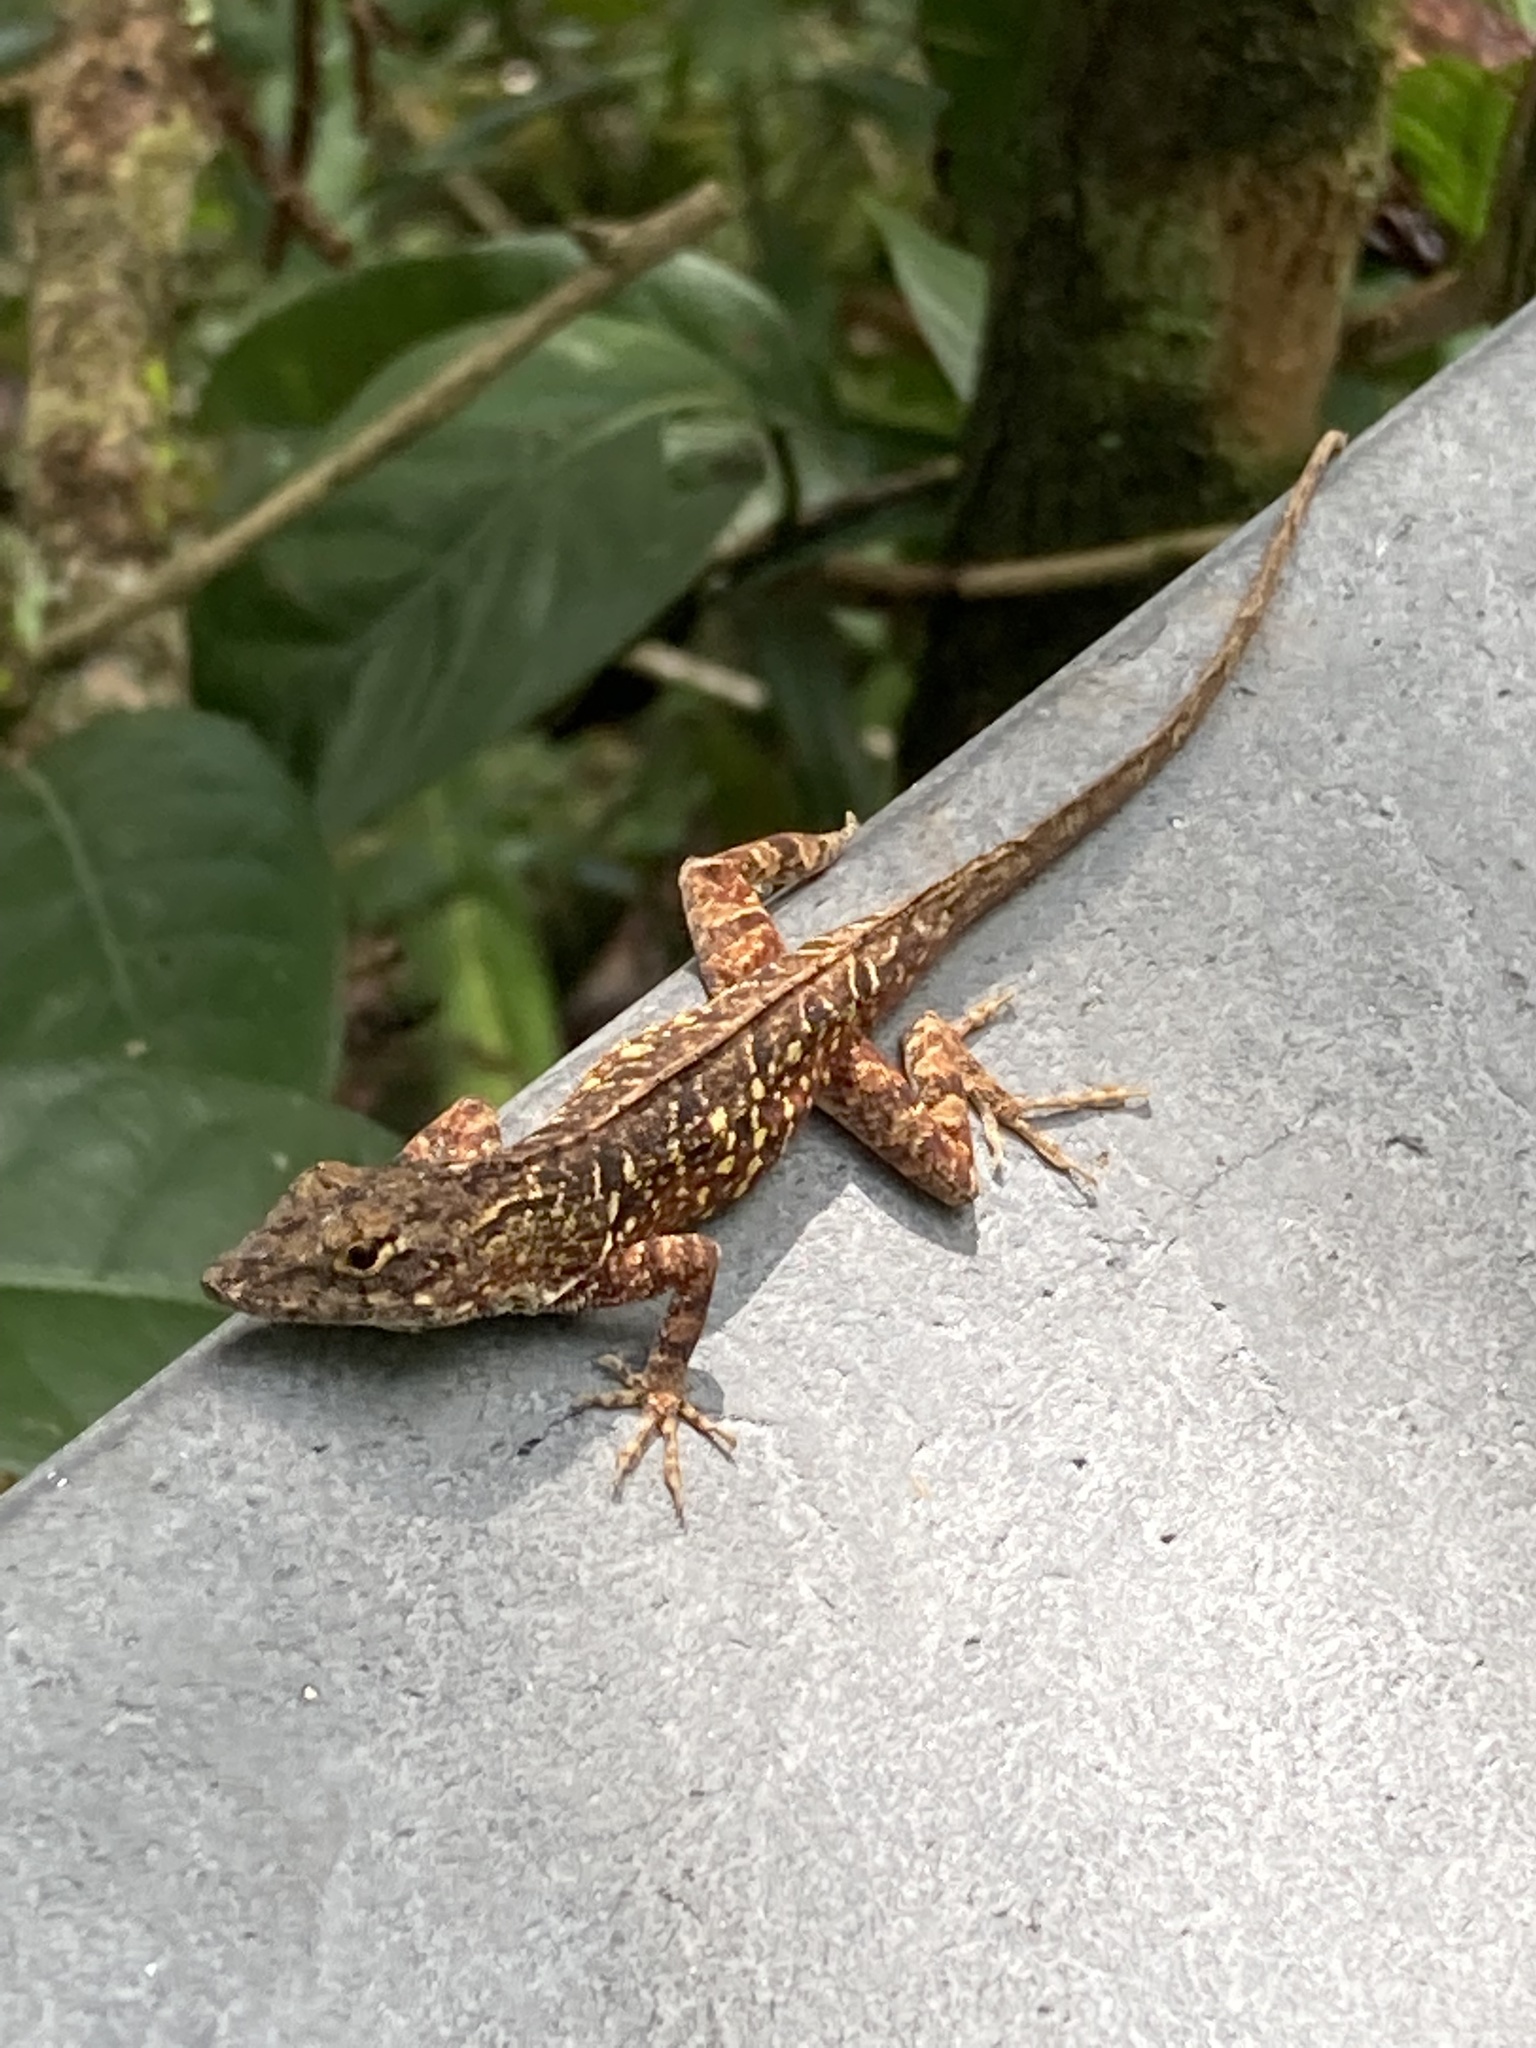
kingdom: Animalia
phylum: Chordata
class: Squamata
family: Dactyloidae
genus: Anolis
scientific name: Anolis sagrei
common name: Brown anole
